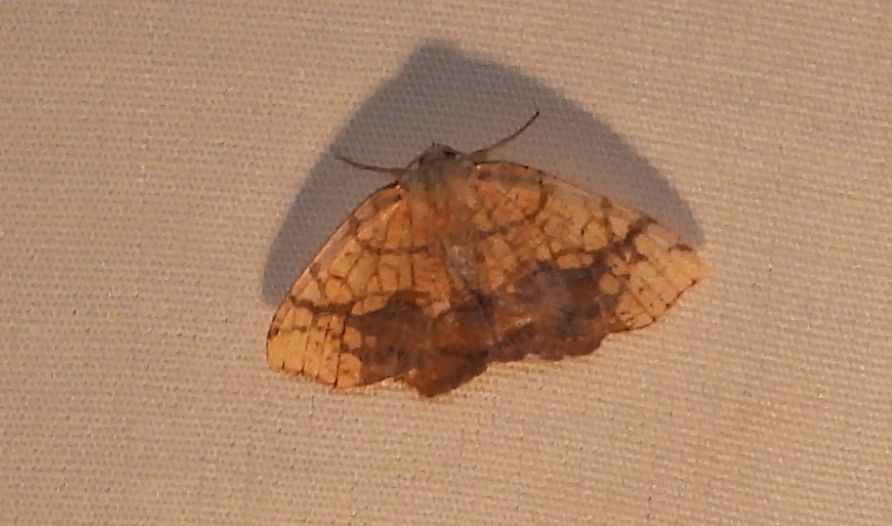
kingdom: Animalia
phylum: Arthropoda
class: Insecta
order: Lepidoptera
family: Geometridae
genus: Nematocampa
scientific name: Nematocampa resistaria
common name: Horned spanworm moth
